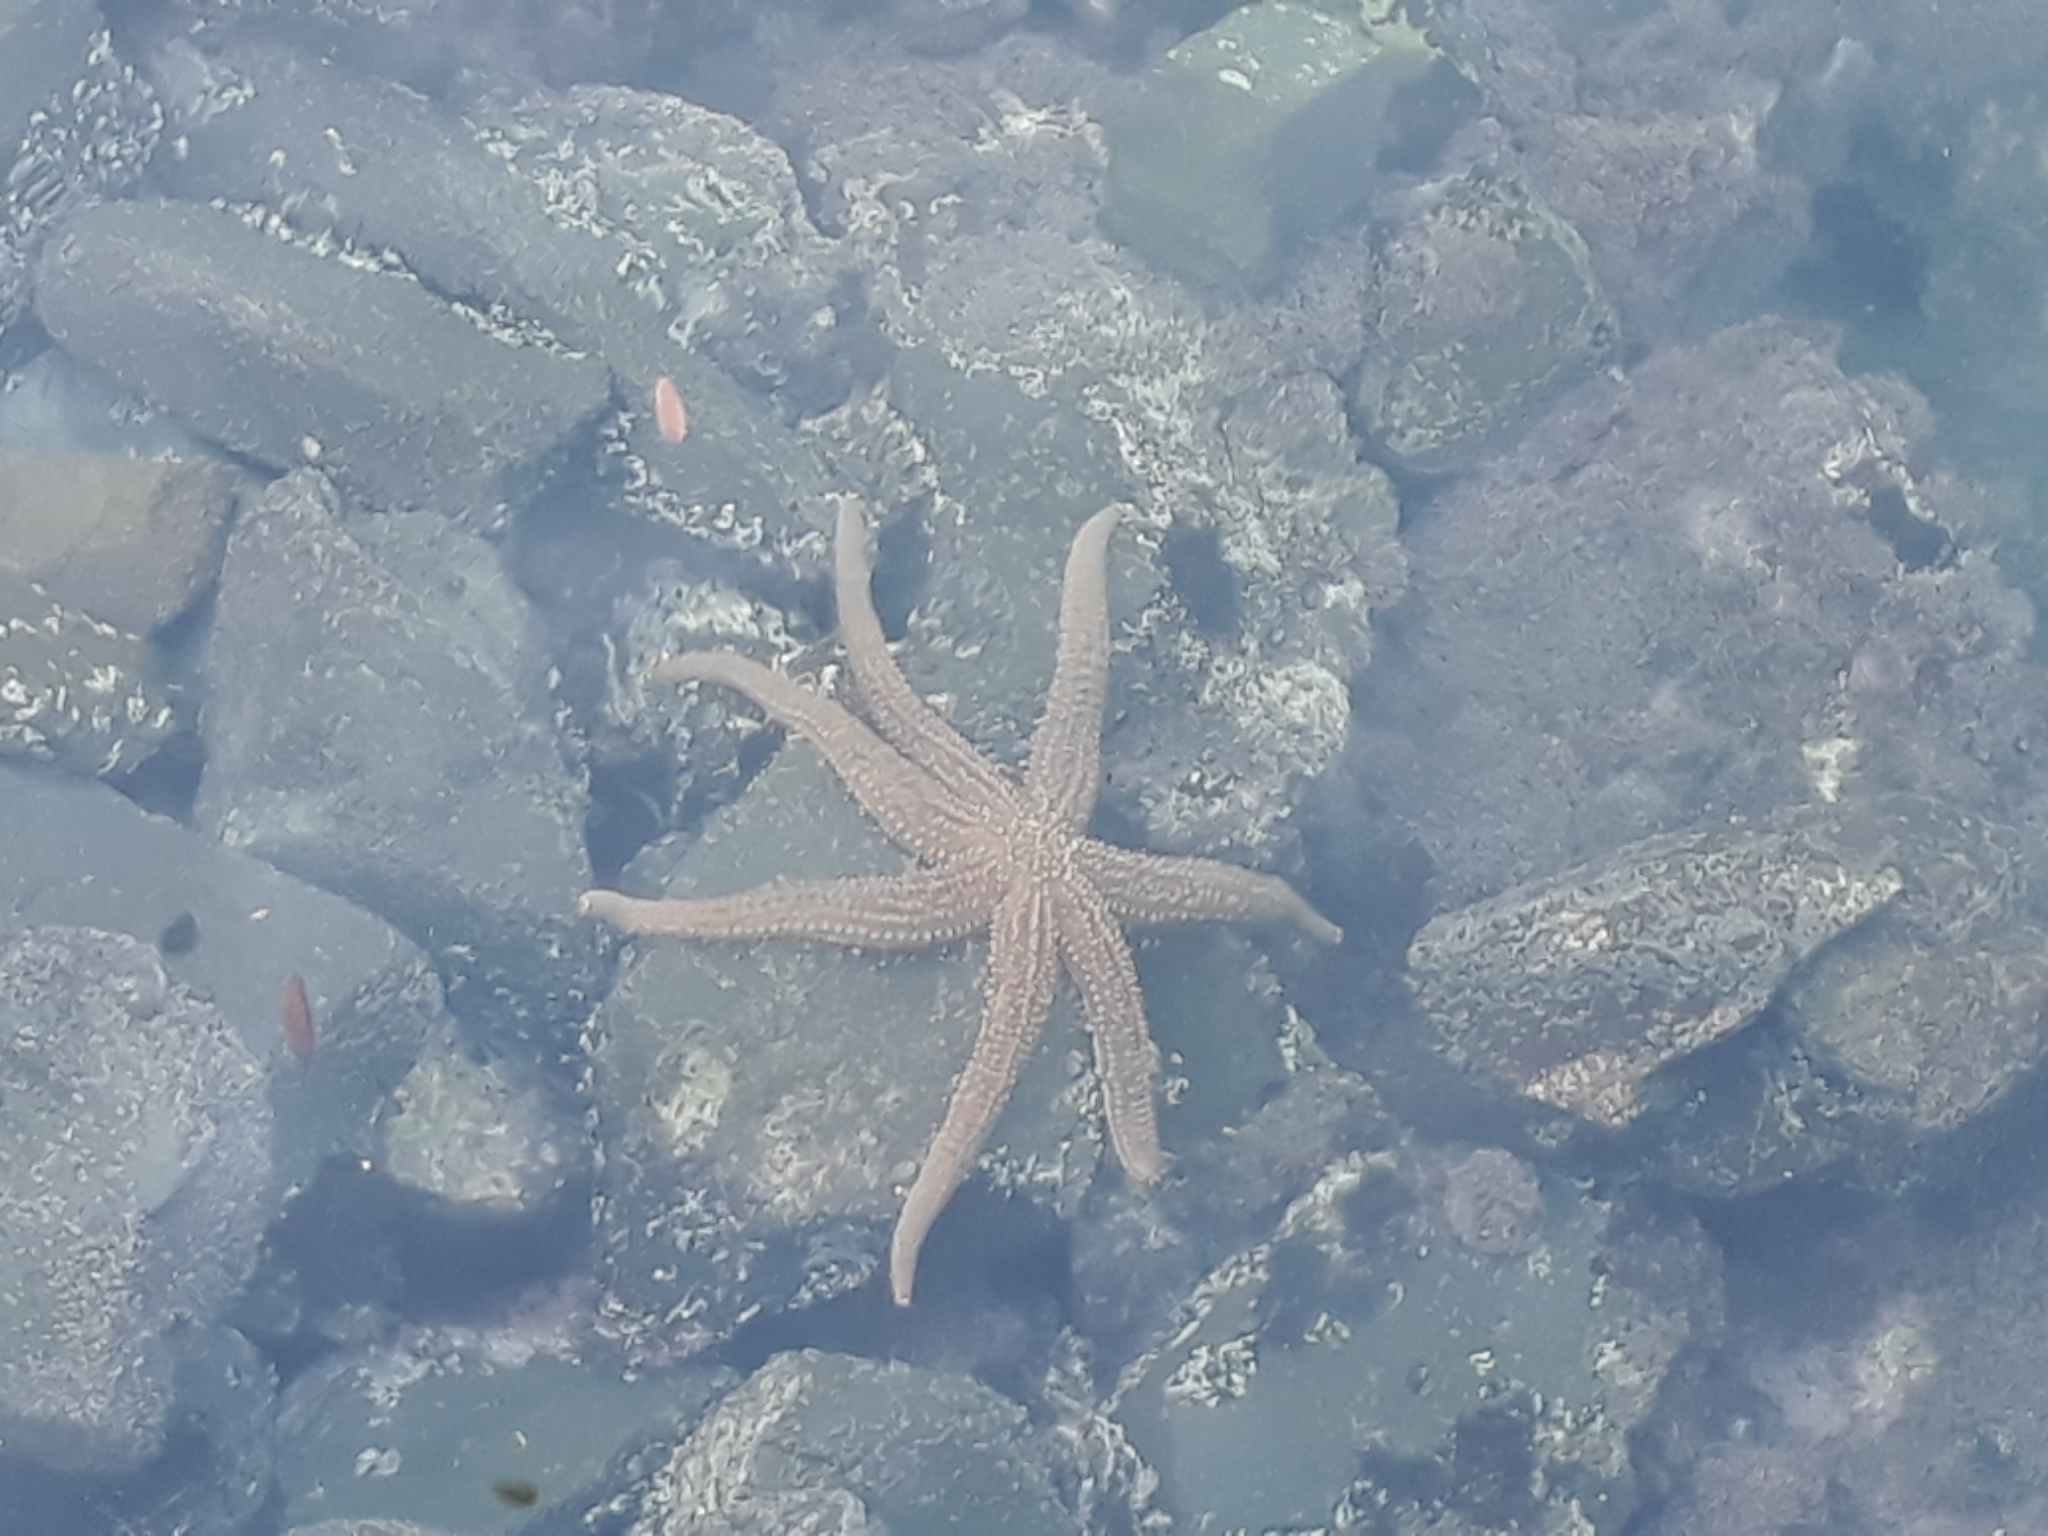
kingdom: Animalia
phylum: Echinodermata
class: Asteroidea
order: Forcipulatida
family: Asteriidae
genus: Astrostole
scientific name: Astrostole scabra
